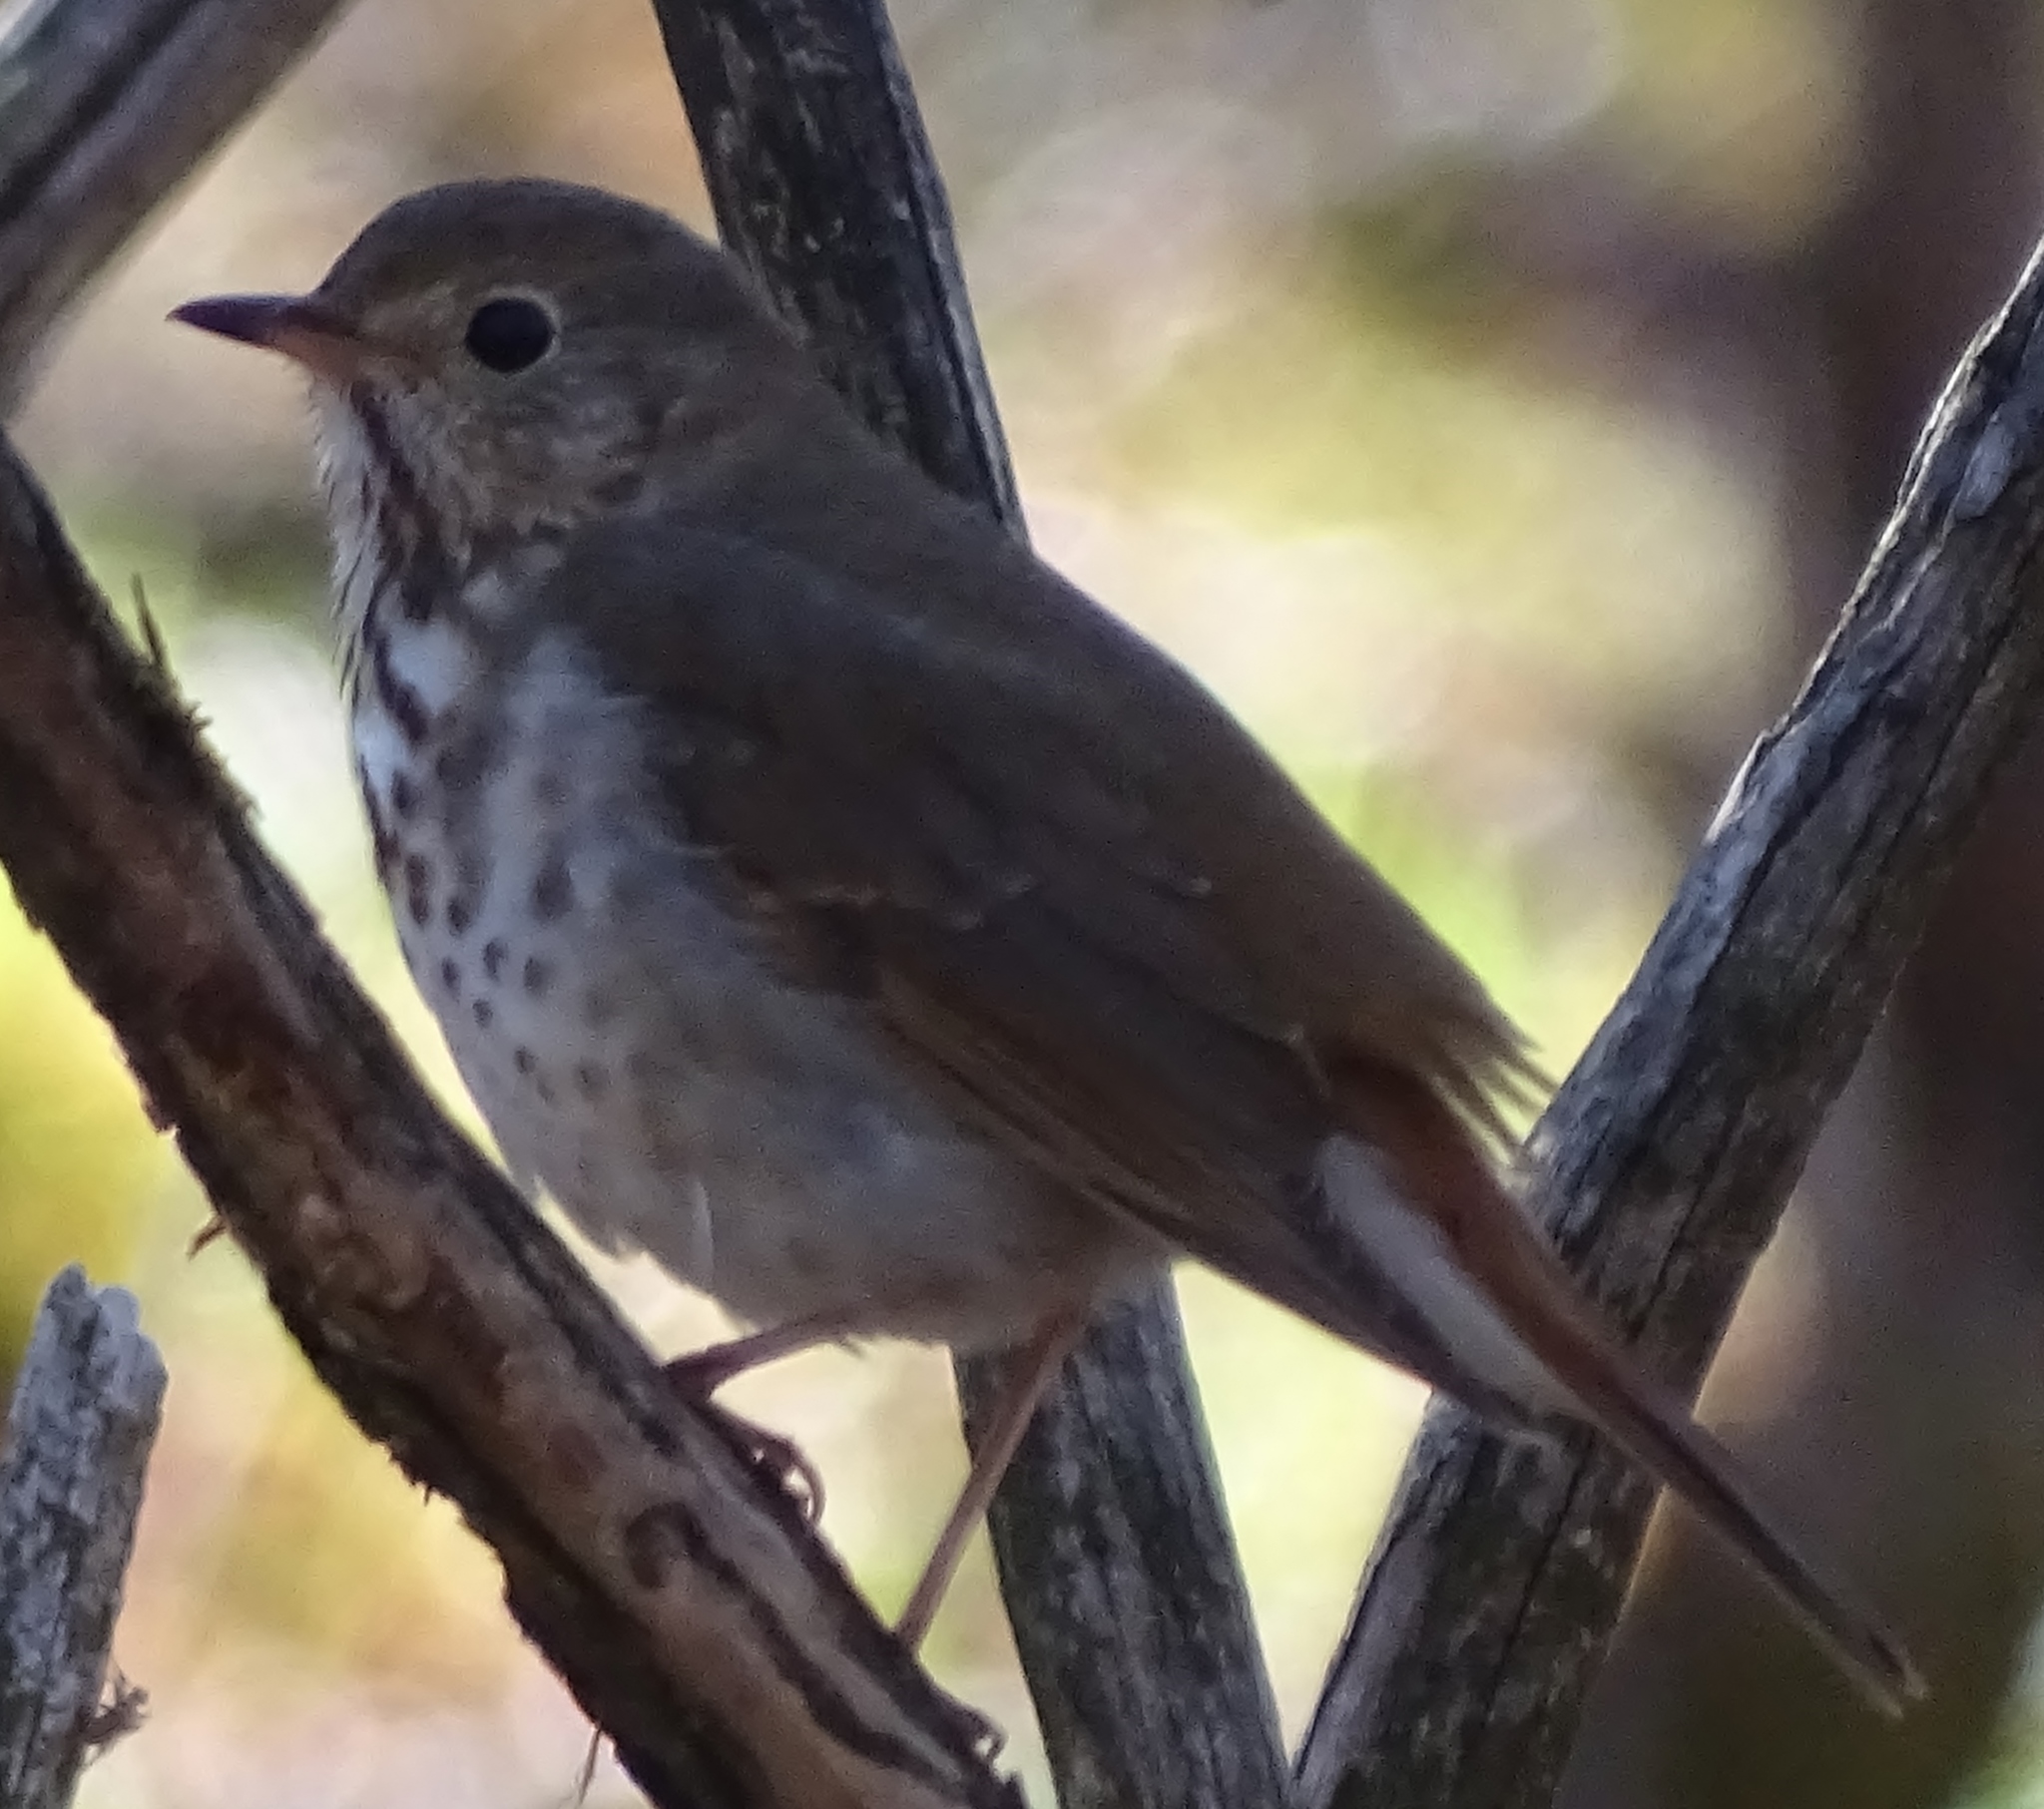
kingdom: Animalia
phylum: Chordata
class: Aves
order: Passeriformes
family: Turdidae
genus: Catharus
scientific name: Catharus guttatus
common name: Hermit thrush
